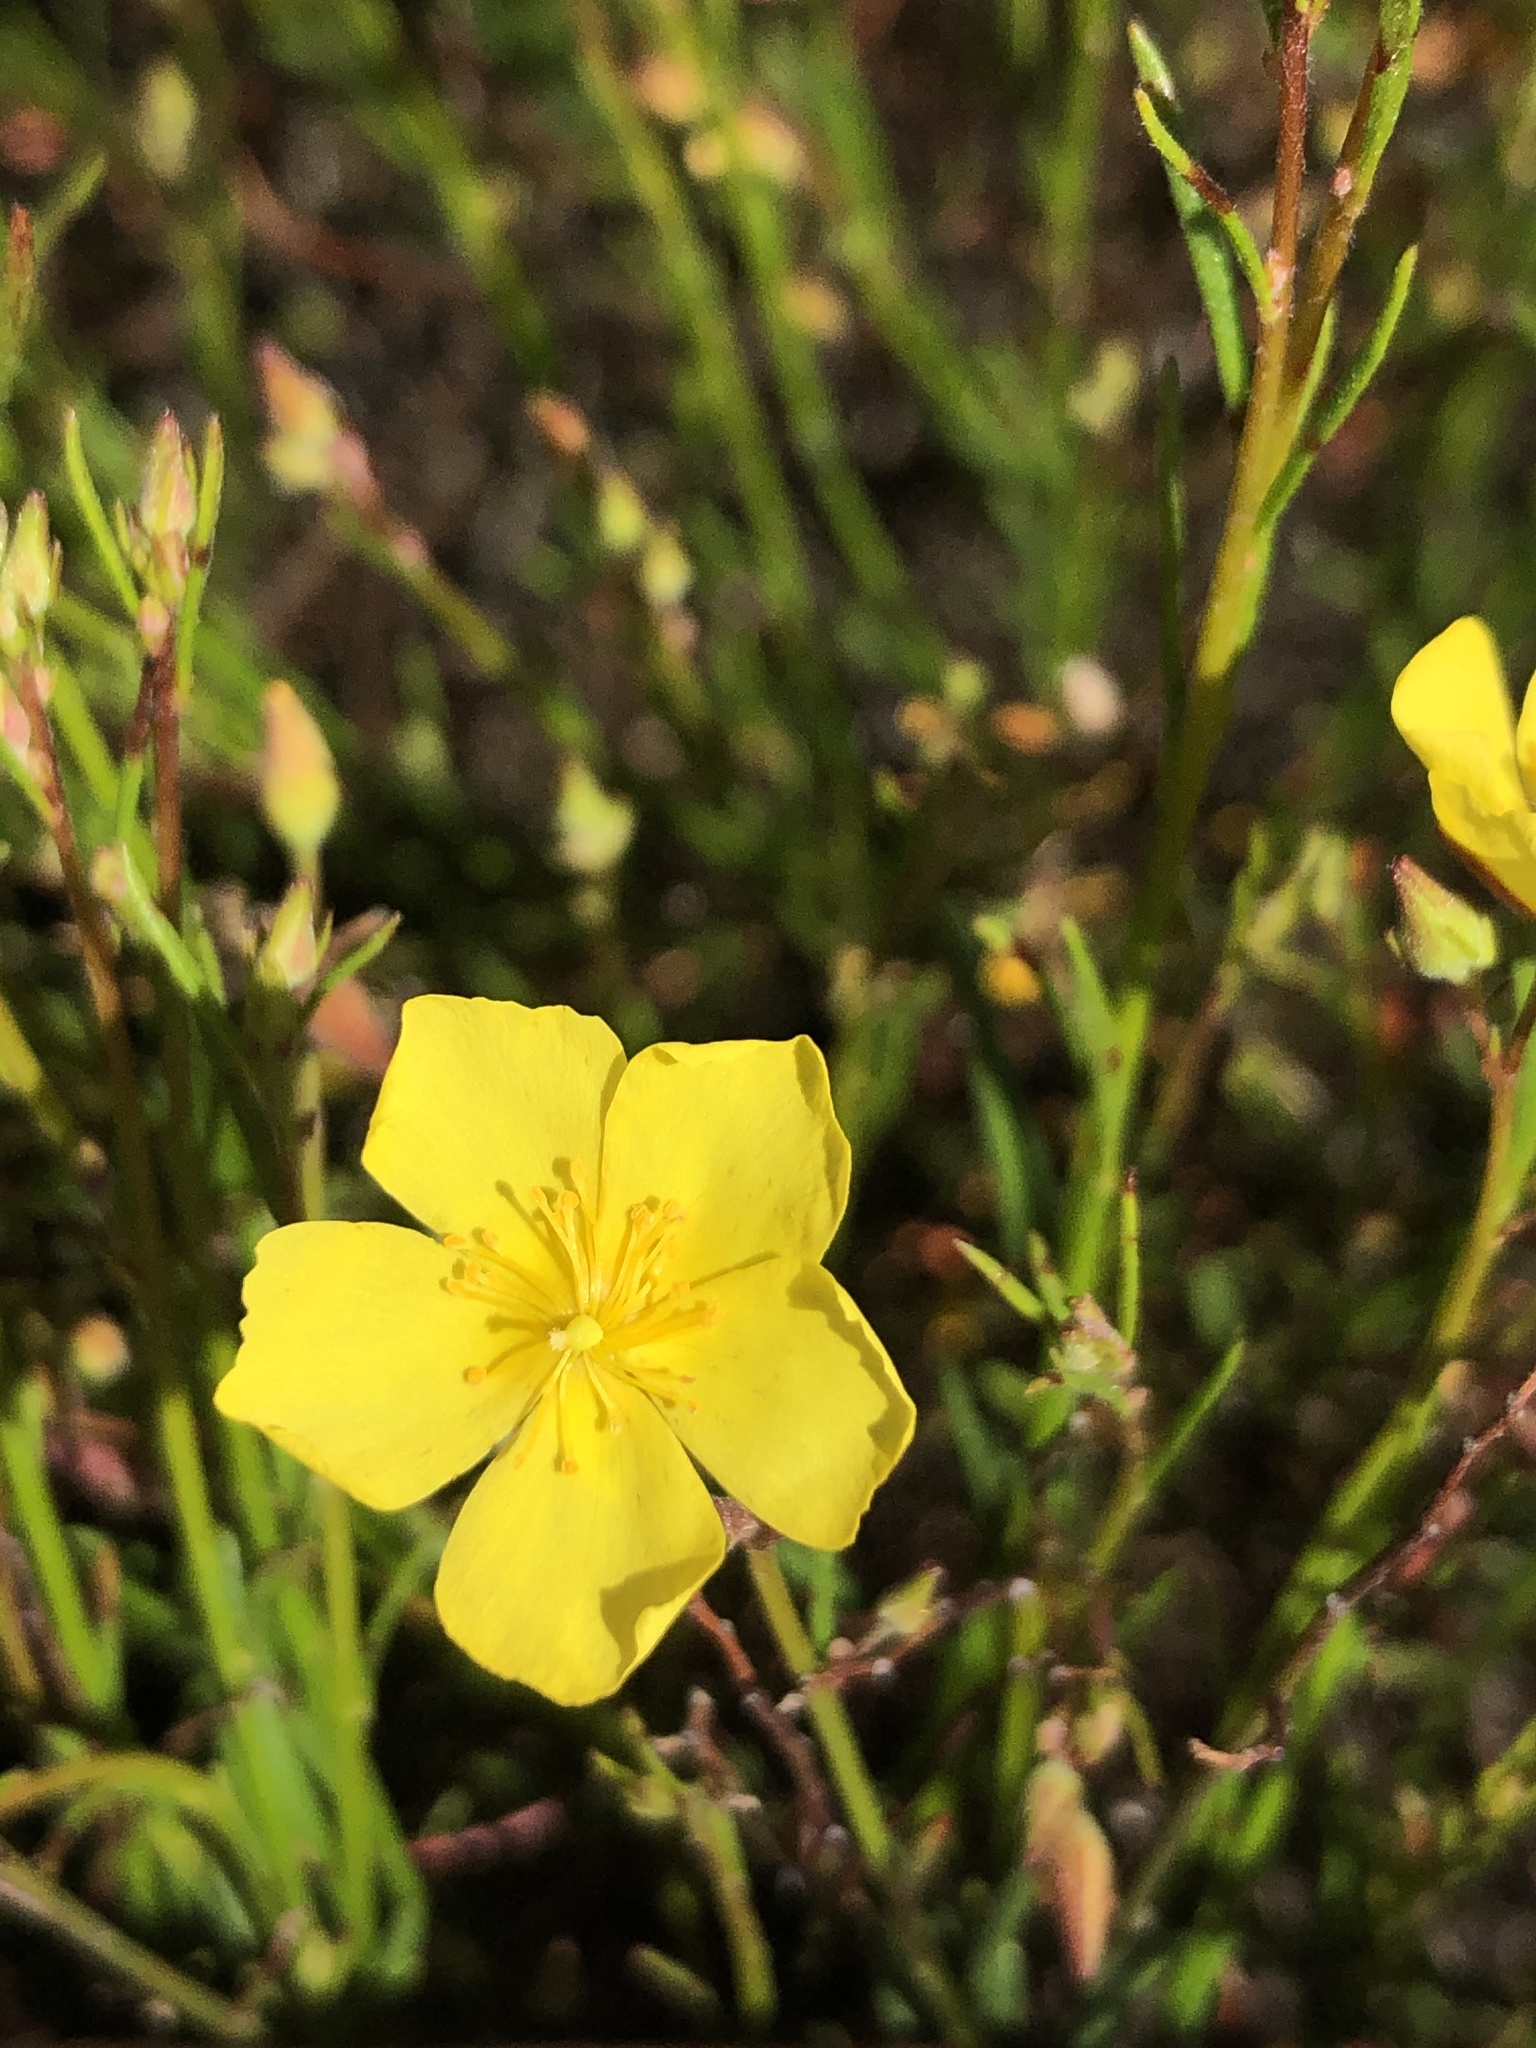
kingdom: Plantae
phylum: Tracheophyta
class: Magnoliopsida
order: Malvales
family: Cistaceae
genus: Crocanthemum
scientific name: Crocanthemum scoparium
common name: Broom-rose
